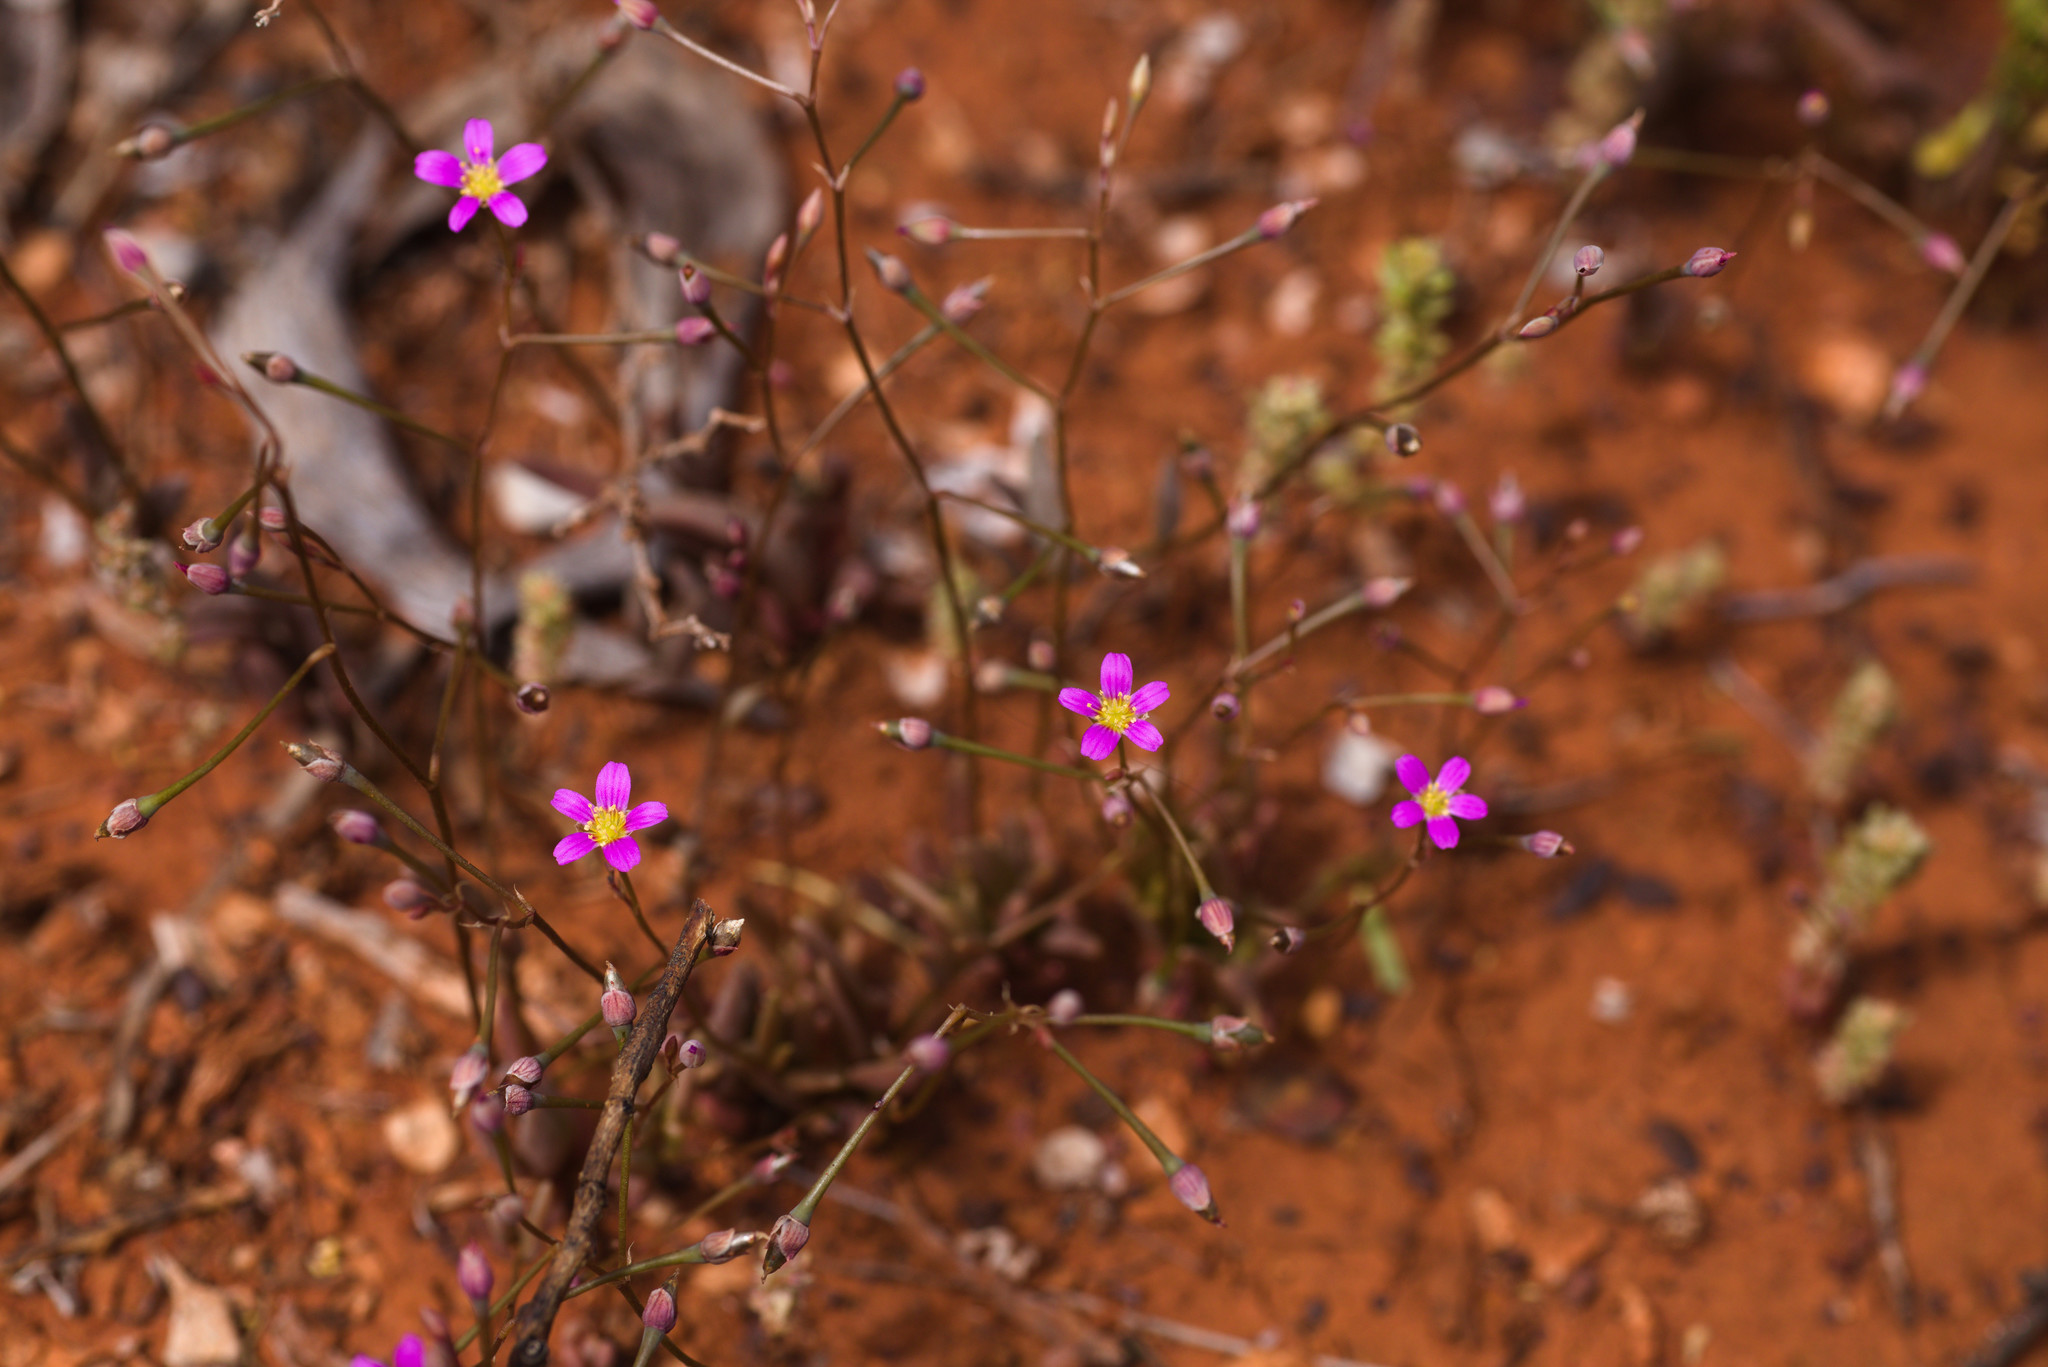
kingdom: Plantae
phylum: Tracheophyta
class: Magnoliopsida
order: Caryophyllales
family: Montiaceae
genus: Rumicastrum
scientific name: Rumicastrum eremaeum
